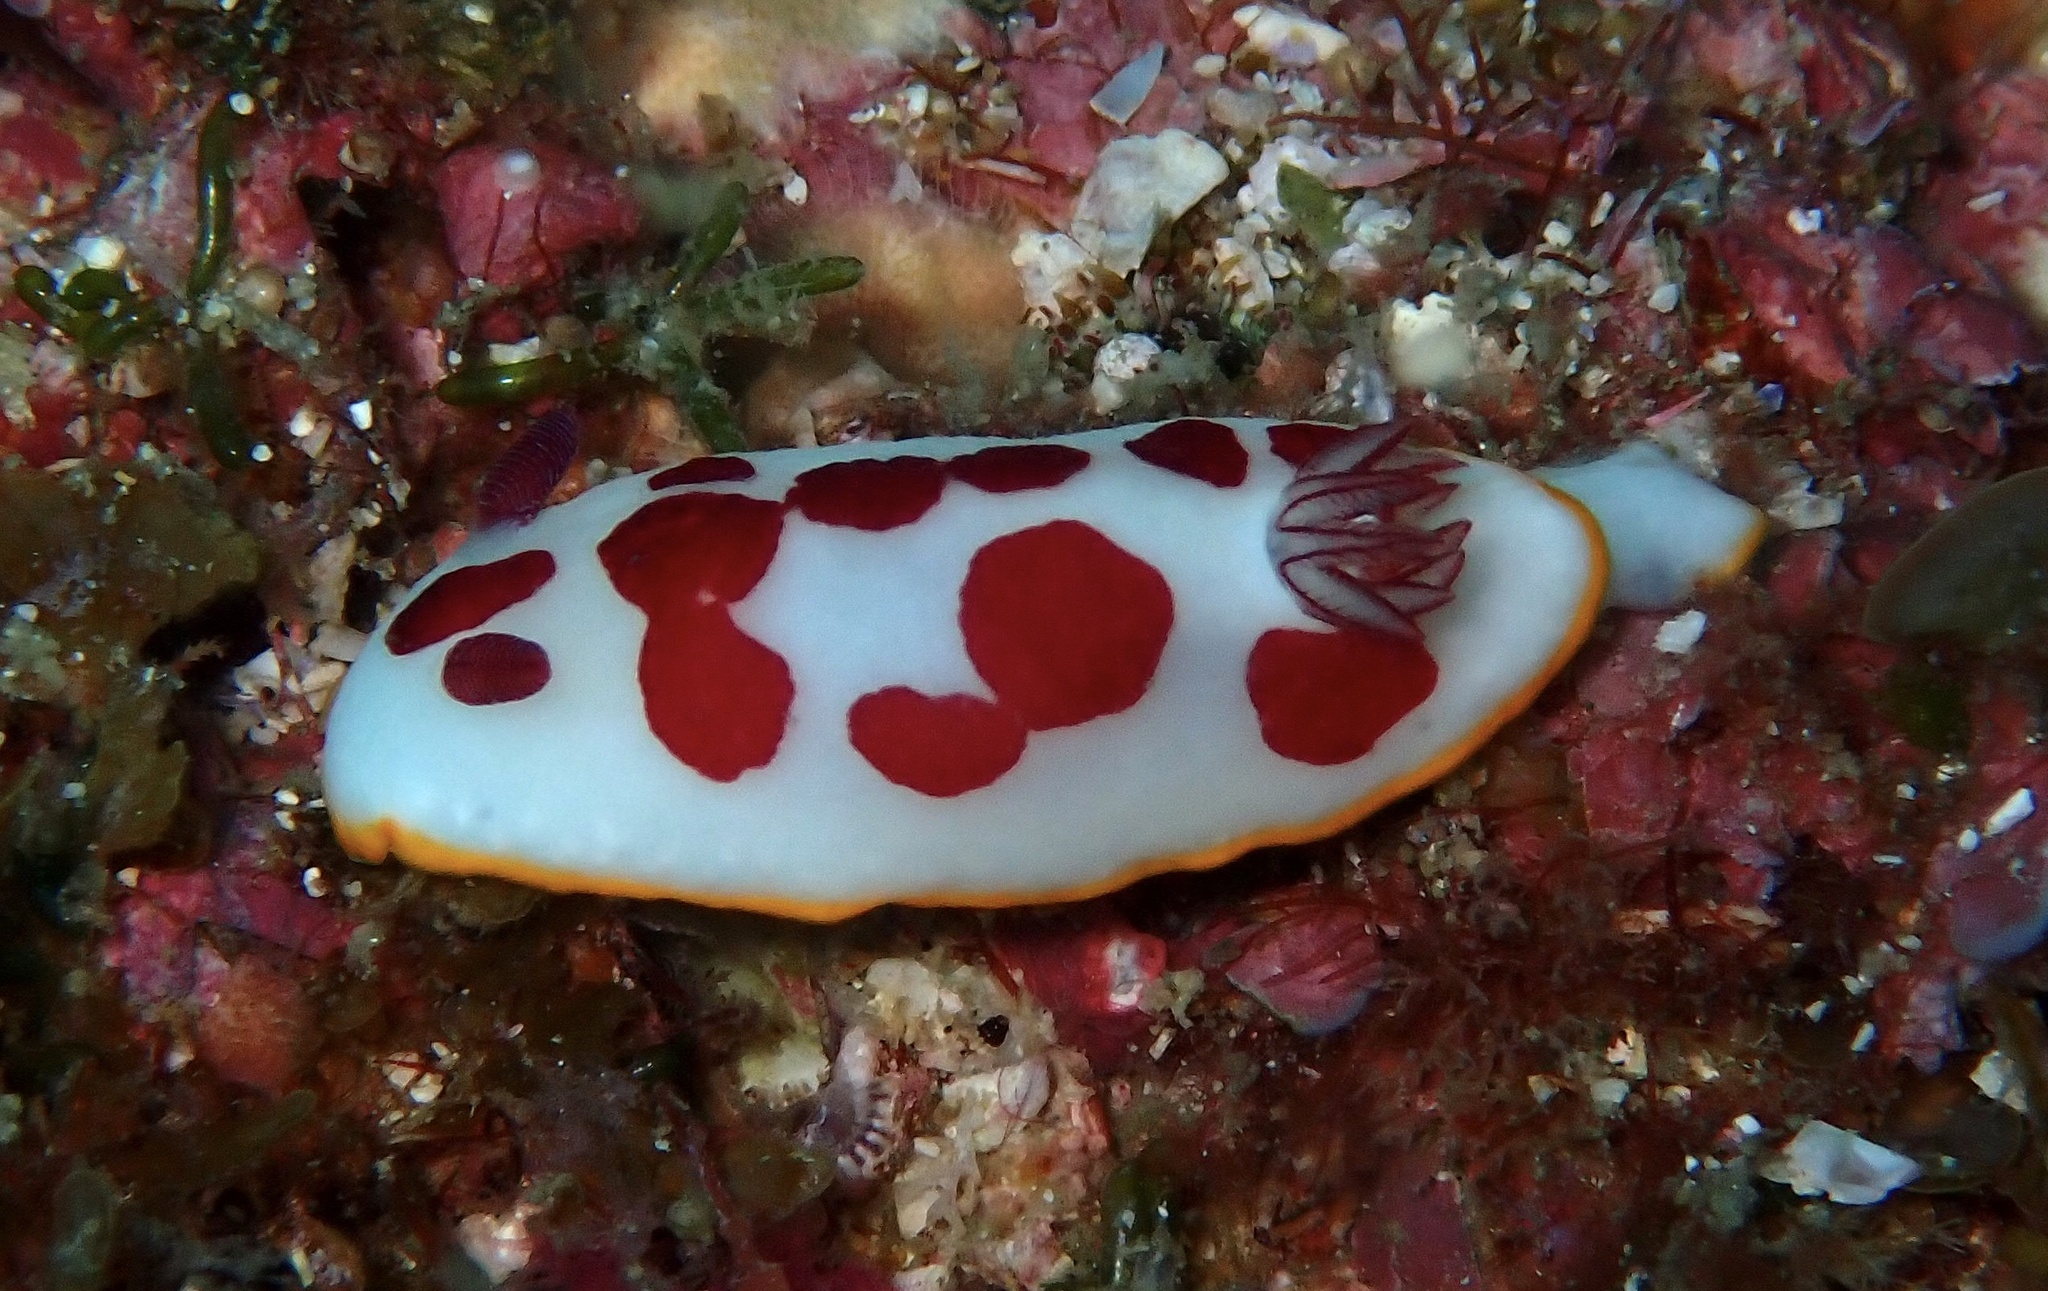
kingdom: Animalia
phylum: Mollusca
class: Gastropoda
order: Nudibranchia
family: Chromodorididae
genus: Goniobranchus
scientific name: Goniobranchus splendidus
